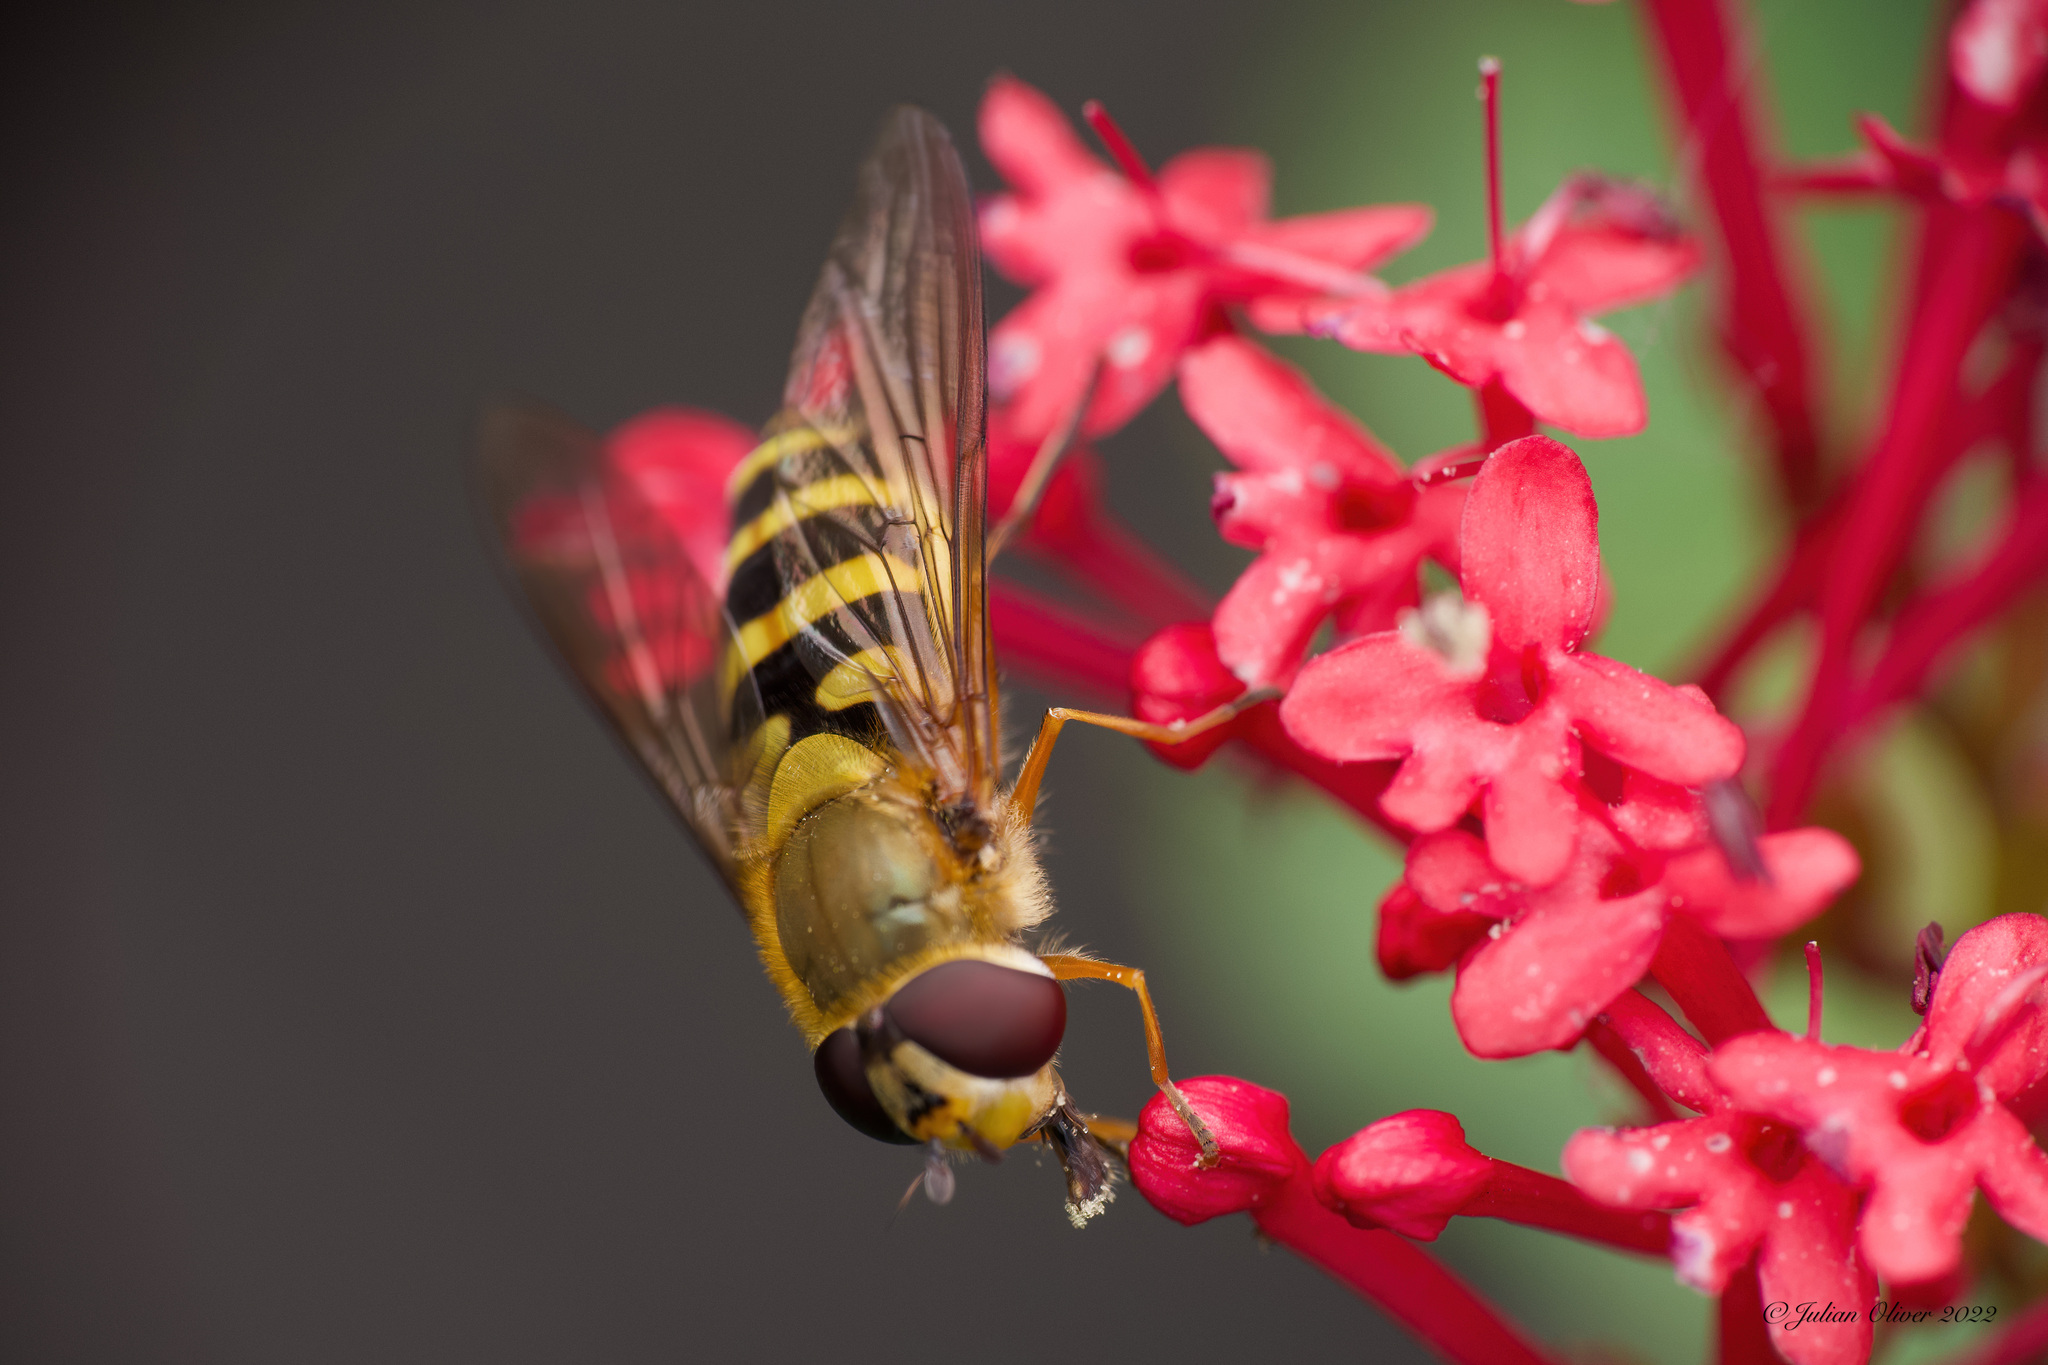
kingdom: Animalia
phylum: Arthropoda
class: Insecta
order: Diptera
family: Syrphidae
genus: Syrphus
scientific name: Syrphus ribesii
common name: Common flower fly
